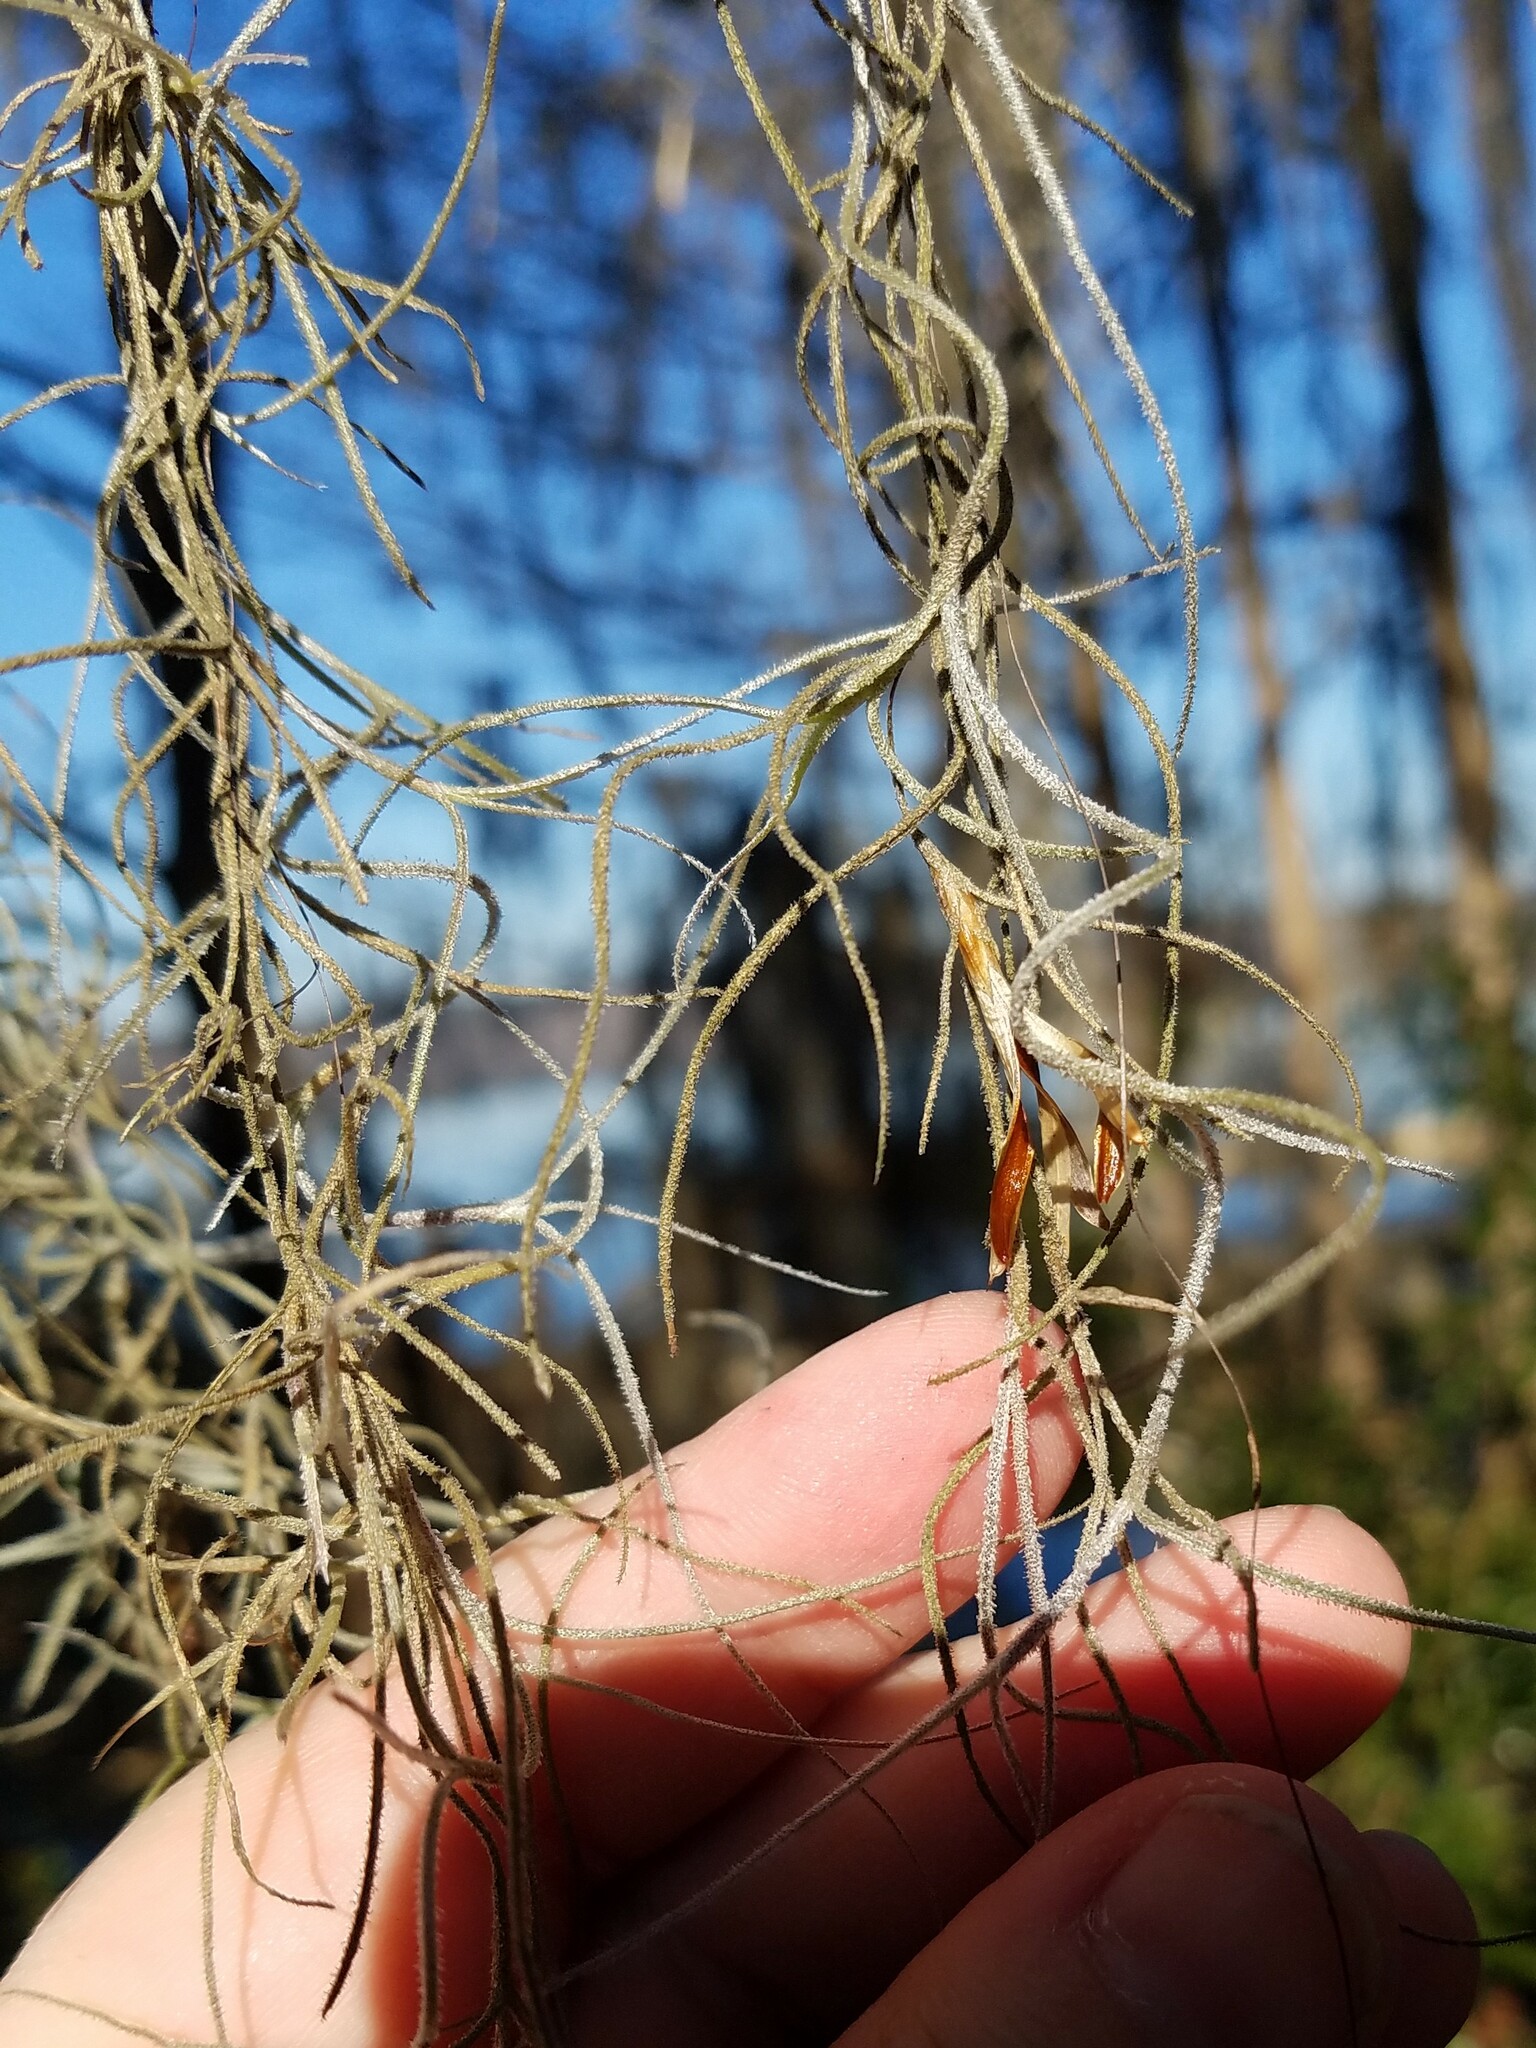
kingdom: Plantae
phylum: Tracheophyta
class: Liliopsida
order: Poales
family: Bromeliaceae
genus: Tillandsia
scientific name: Tillandsia usneoides
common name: Spanish moss
